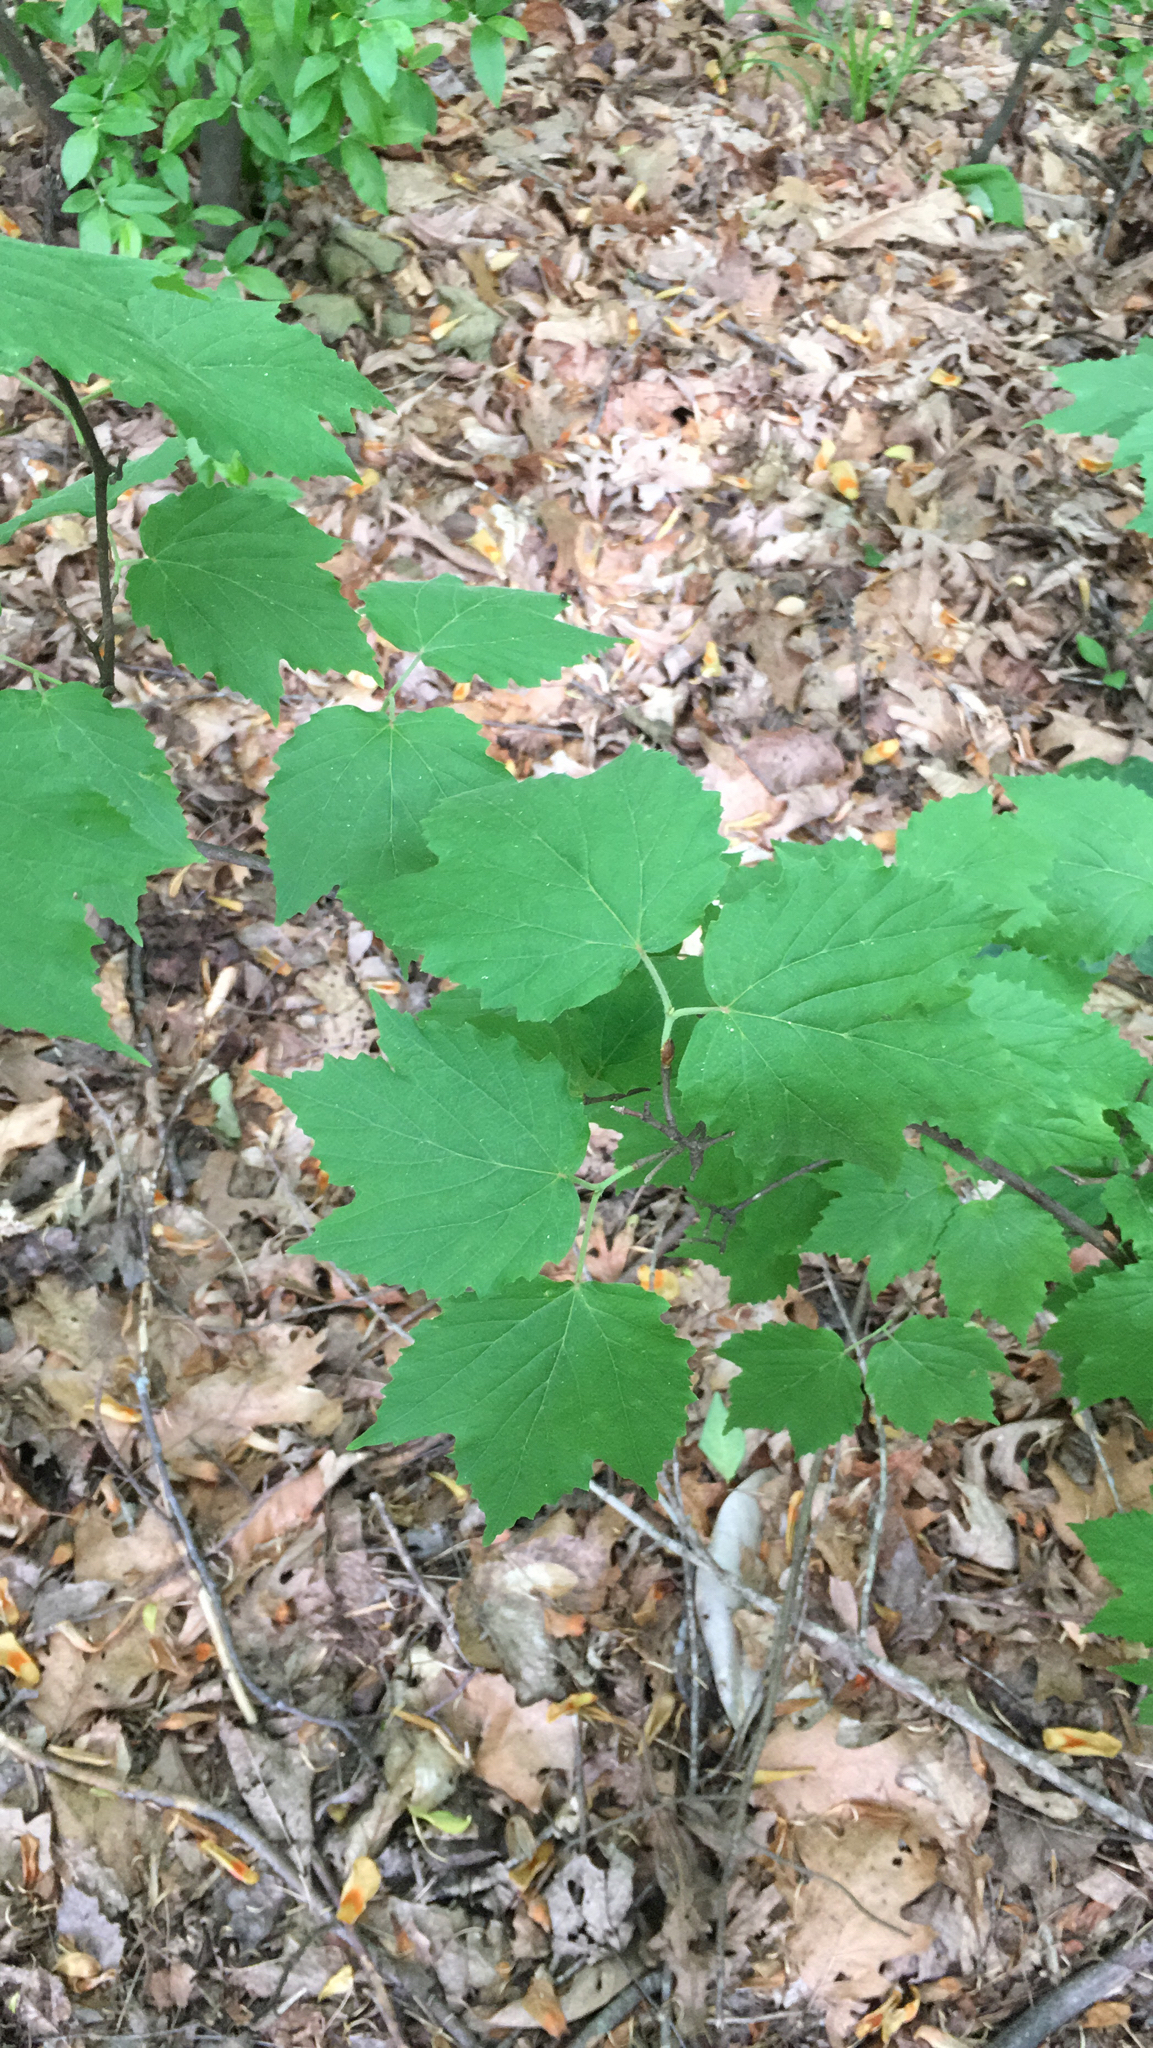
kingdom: Plantae
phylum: Tracheophyta
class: Magnoliopsida
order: Dipsacales
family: Viburnaceae
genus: Viburnum
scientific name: Viburnum acerifolium
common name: Dockmackie
